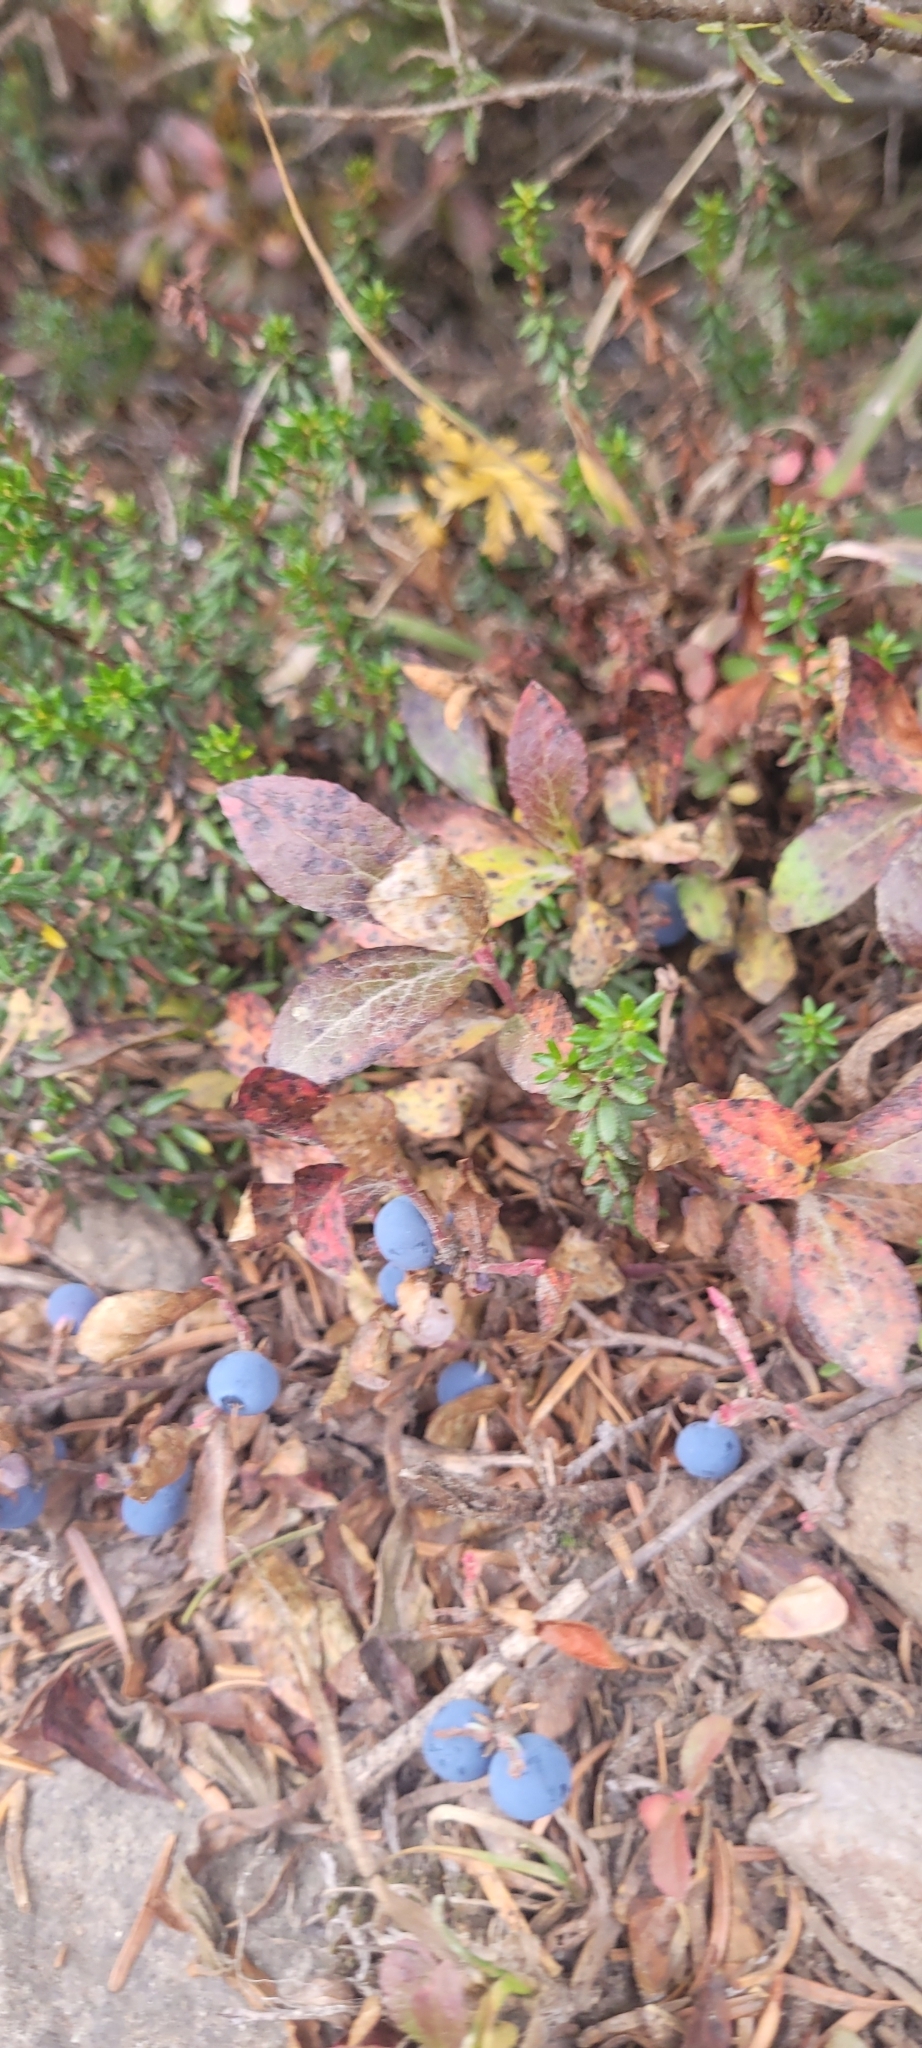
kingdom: Plantae
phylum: Tracheophyta
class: Magnoliopsida
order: Ericales
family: Ericaceae
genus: Vaccinium
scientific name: Vaccinium cespitosum
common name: Dwarf bilberry
